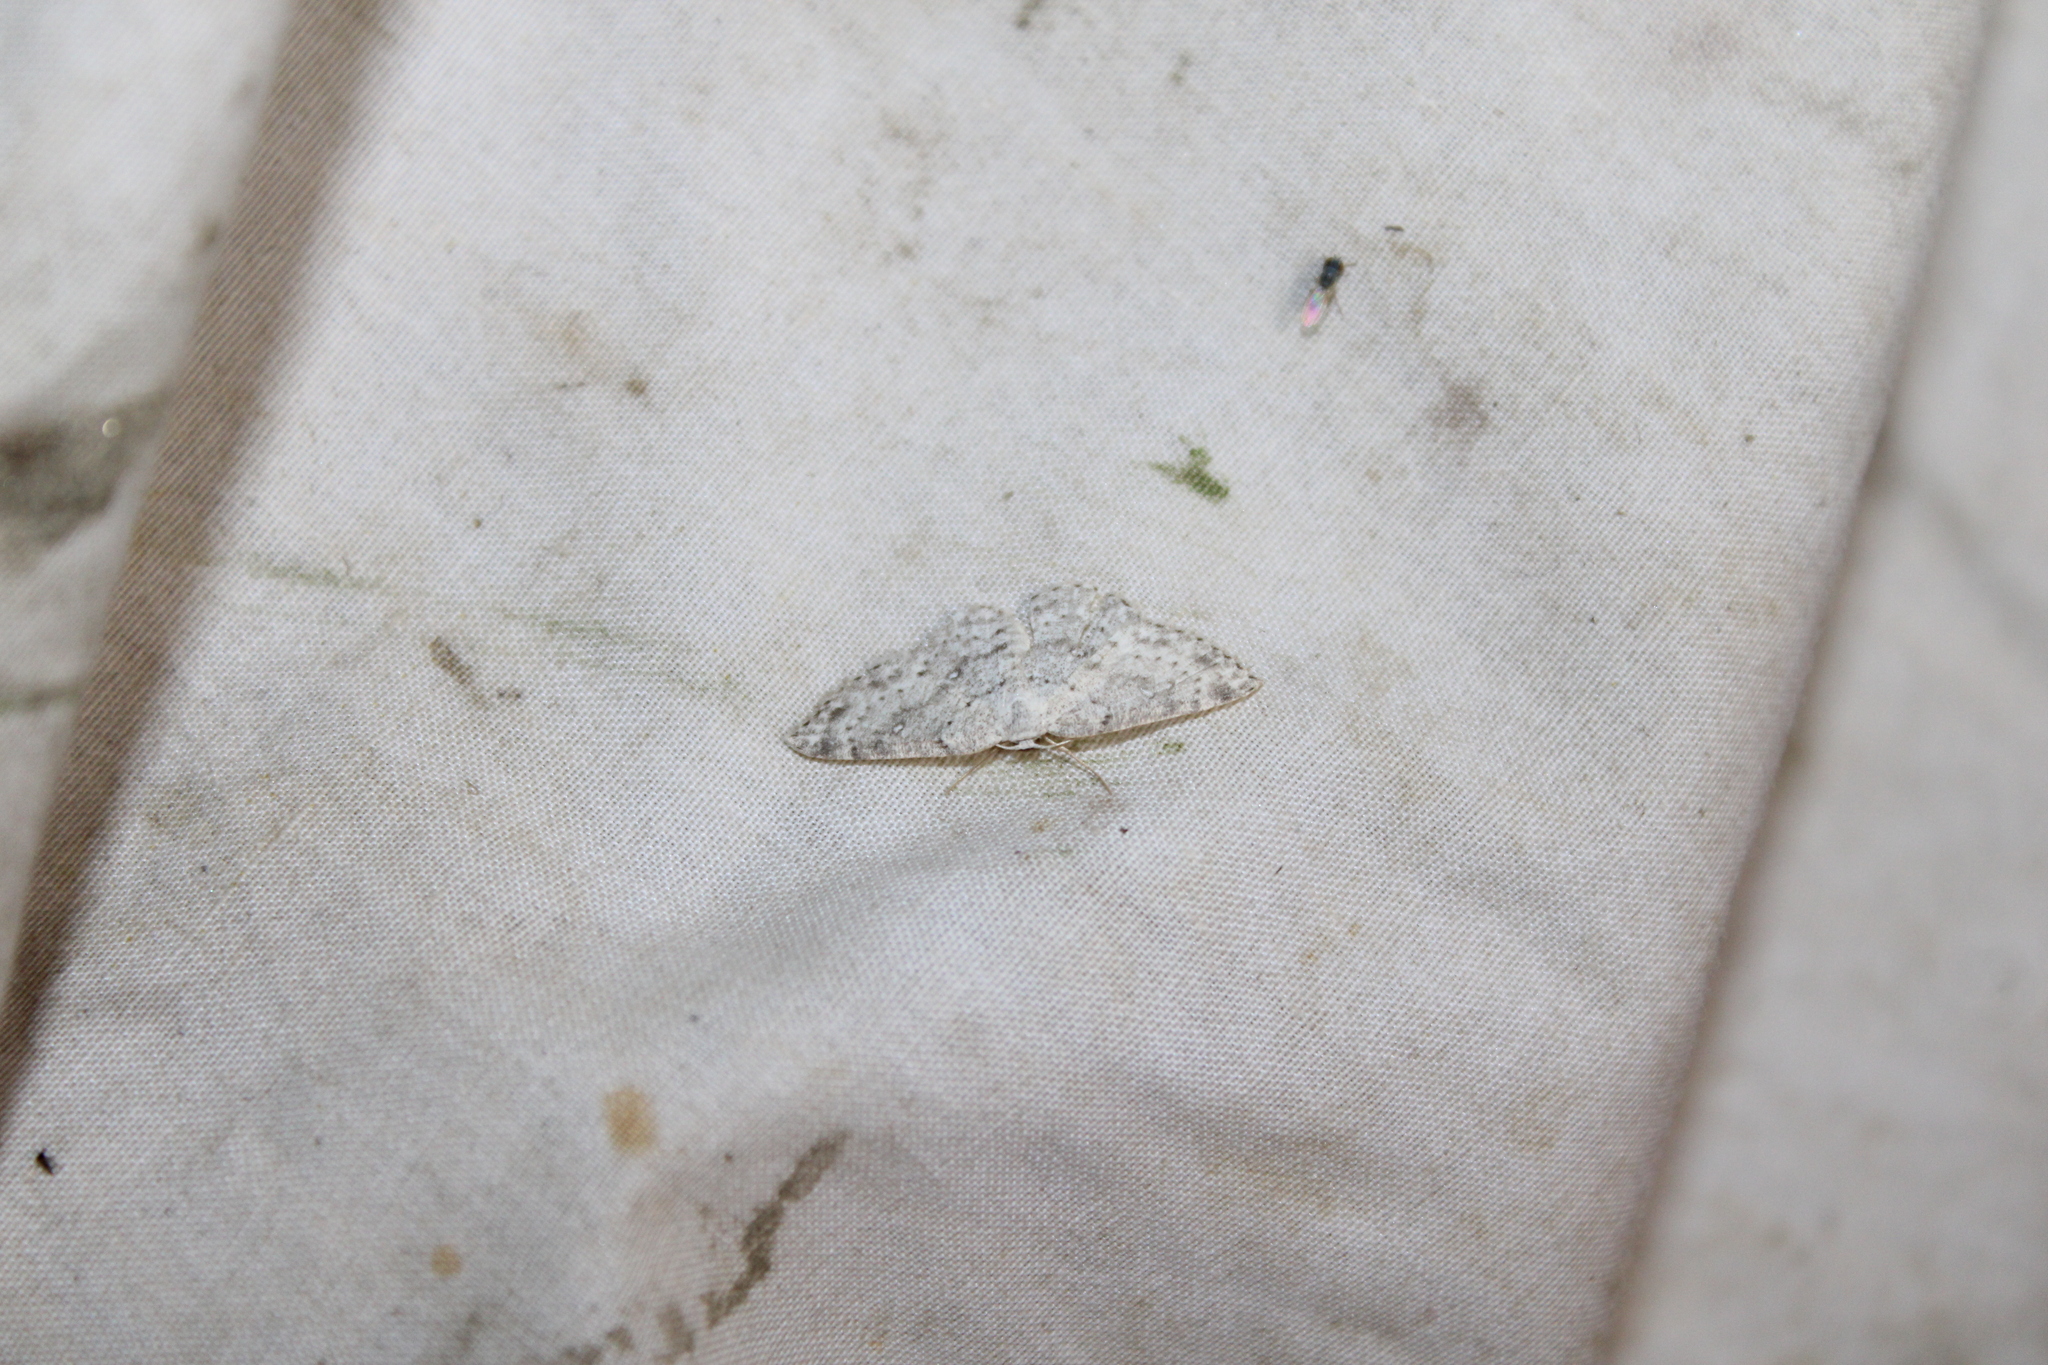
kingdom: Animalia
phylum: Arthropoda
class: Insecta
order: Lepidoptera
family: Geometridae
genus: Cyclophora
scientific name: Cyclophora pendulinaria
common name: Sweet fern geometer
